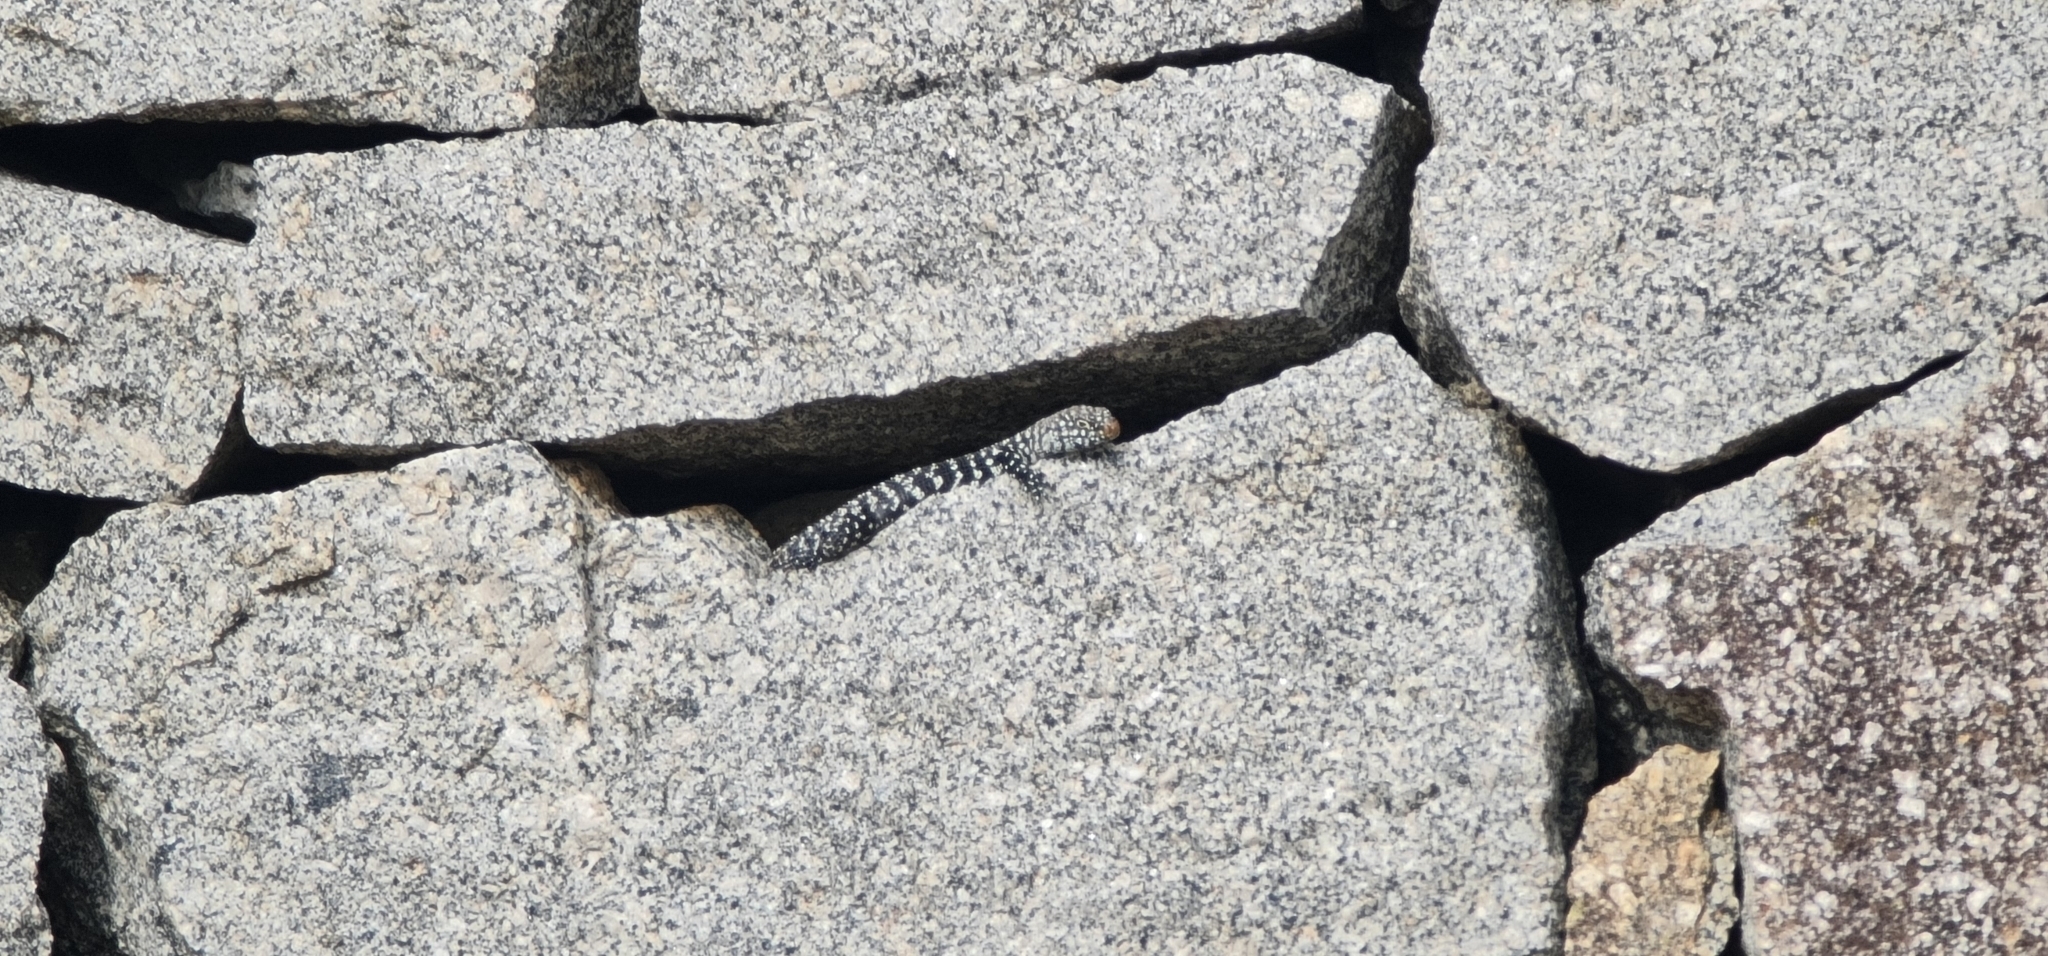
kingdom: Animalia
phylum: Chordata
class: Squamata
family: Scincidae
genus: Egernia
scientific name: Egernia cunninghami
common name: Cunningham's skink
